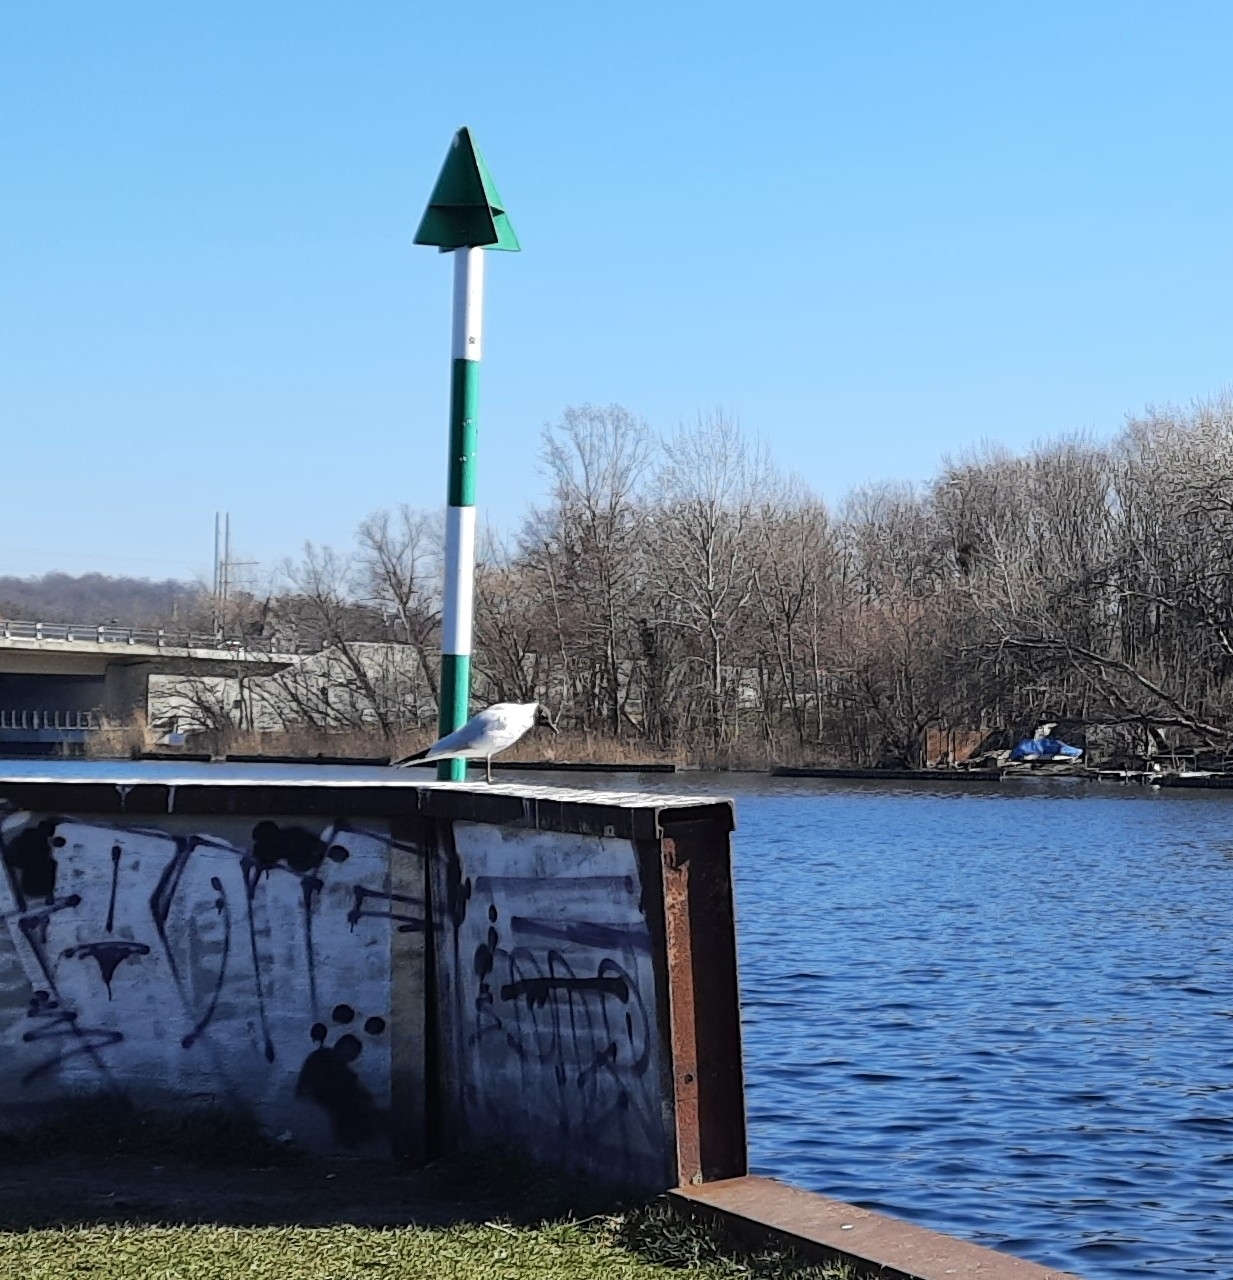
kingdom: Animalia
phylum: Chordata
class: Aves
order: Charadriiformes
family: Laridae
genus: Chroicocephalus
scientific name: Chroicocephalus ridibundus
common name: Black-headed gull
